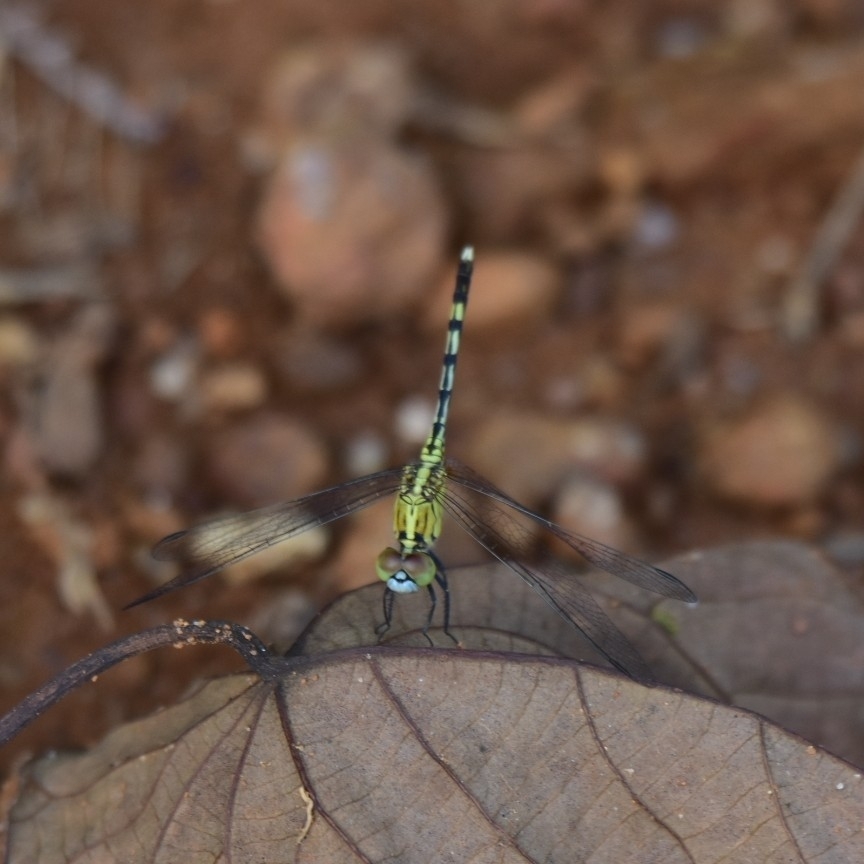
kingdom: Animalia
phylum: Arthropoda
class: Insecta
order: Odonata
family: Libellulidae
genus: Diplacodes
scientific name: Diplacodes trivialis
